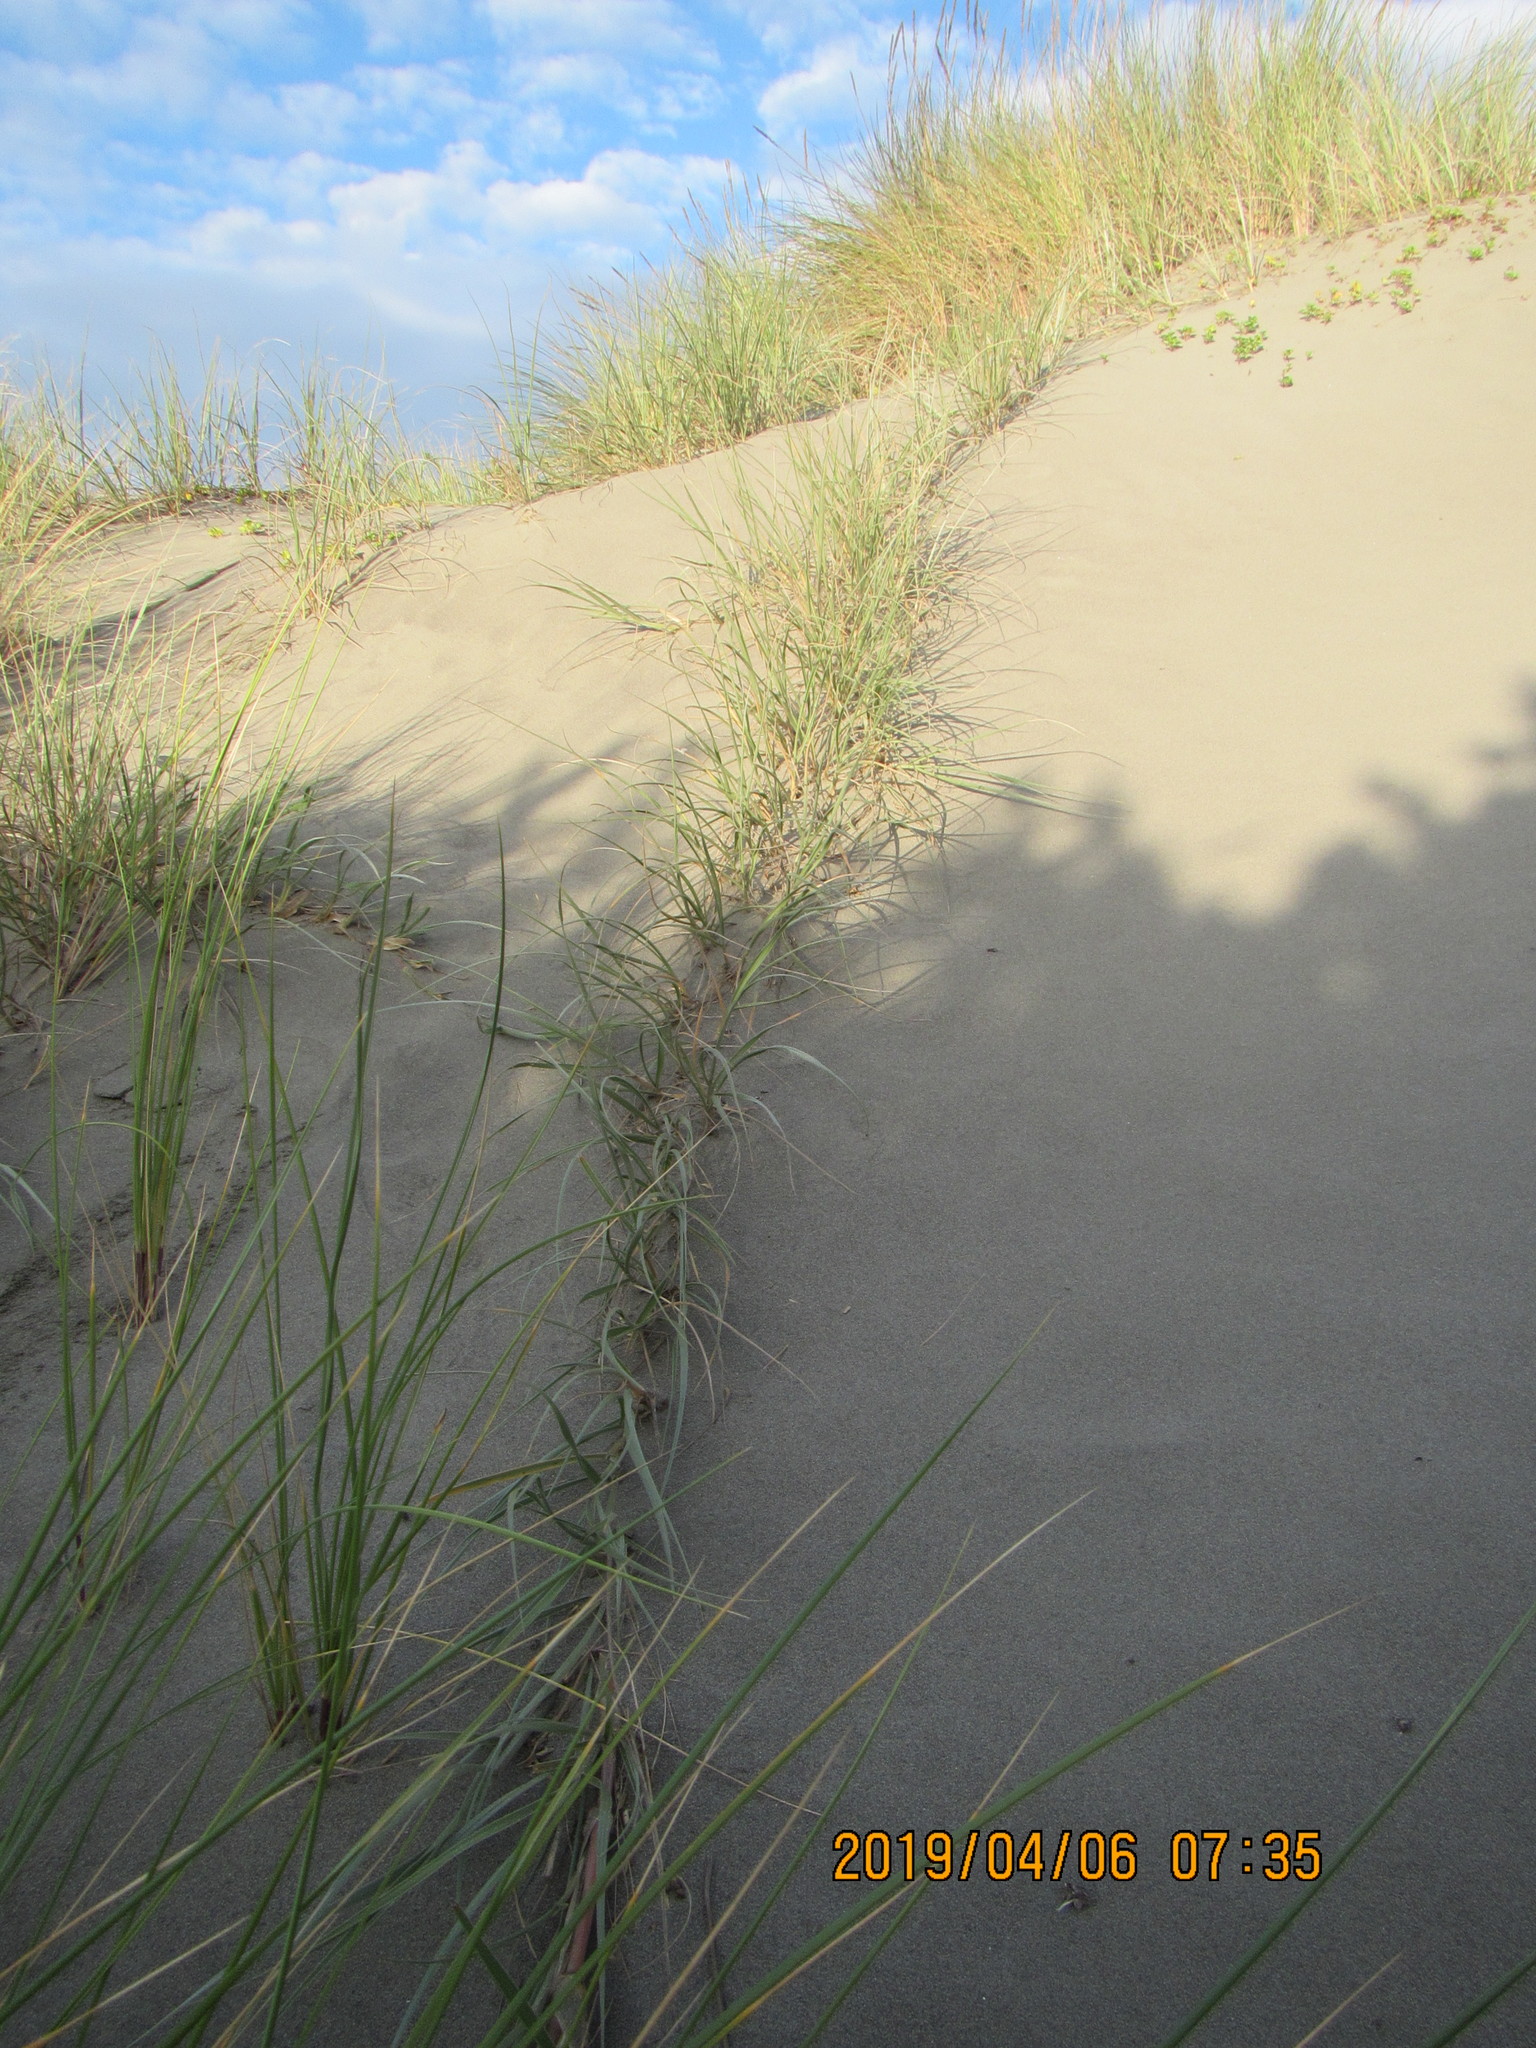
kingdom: Plantae
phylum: Tracheophyta
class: Liliopsida
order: Poales
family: Poaceae
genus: Spinifex
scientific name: Spinifex sericeus
